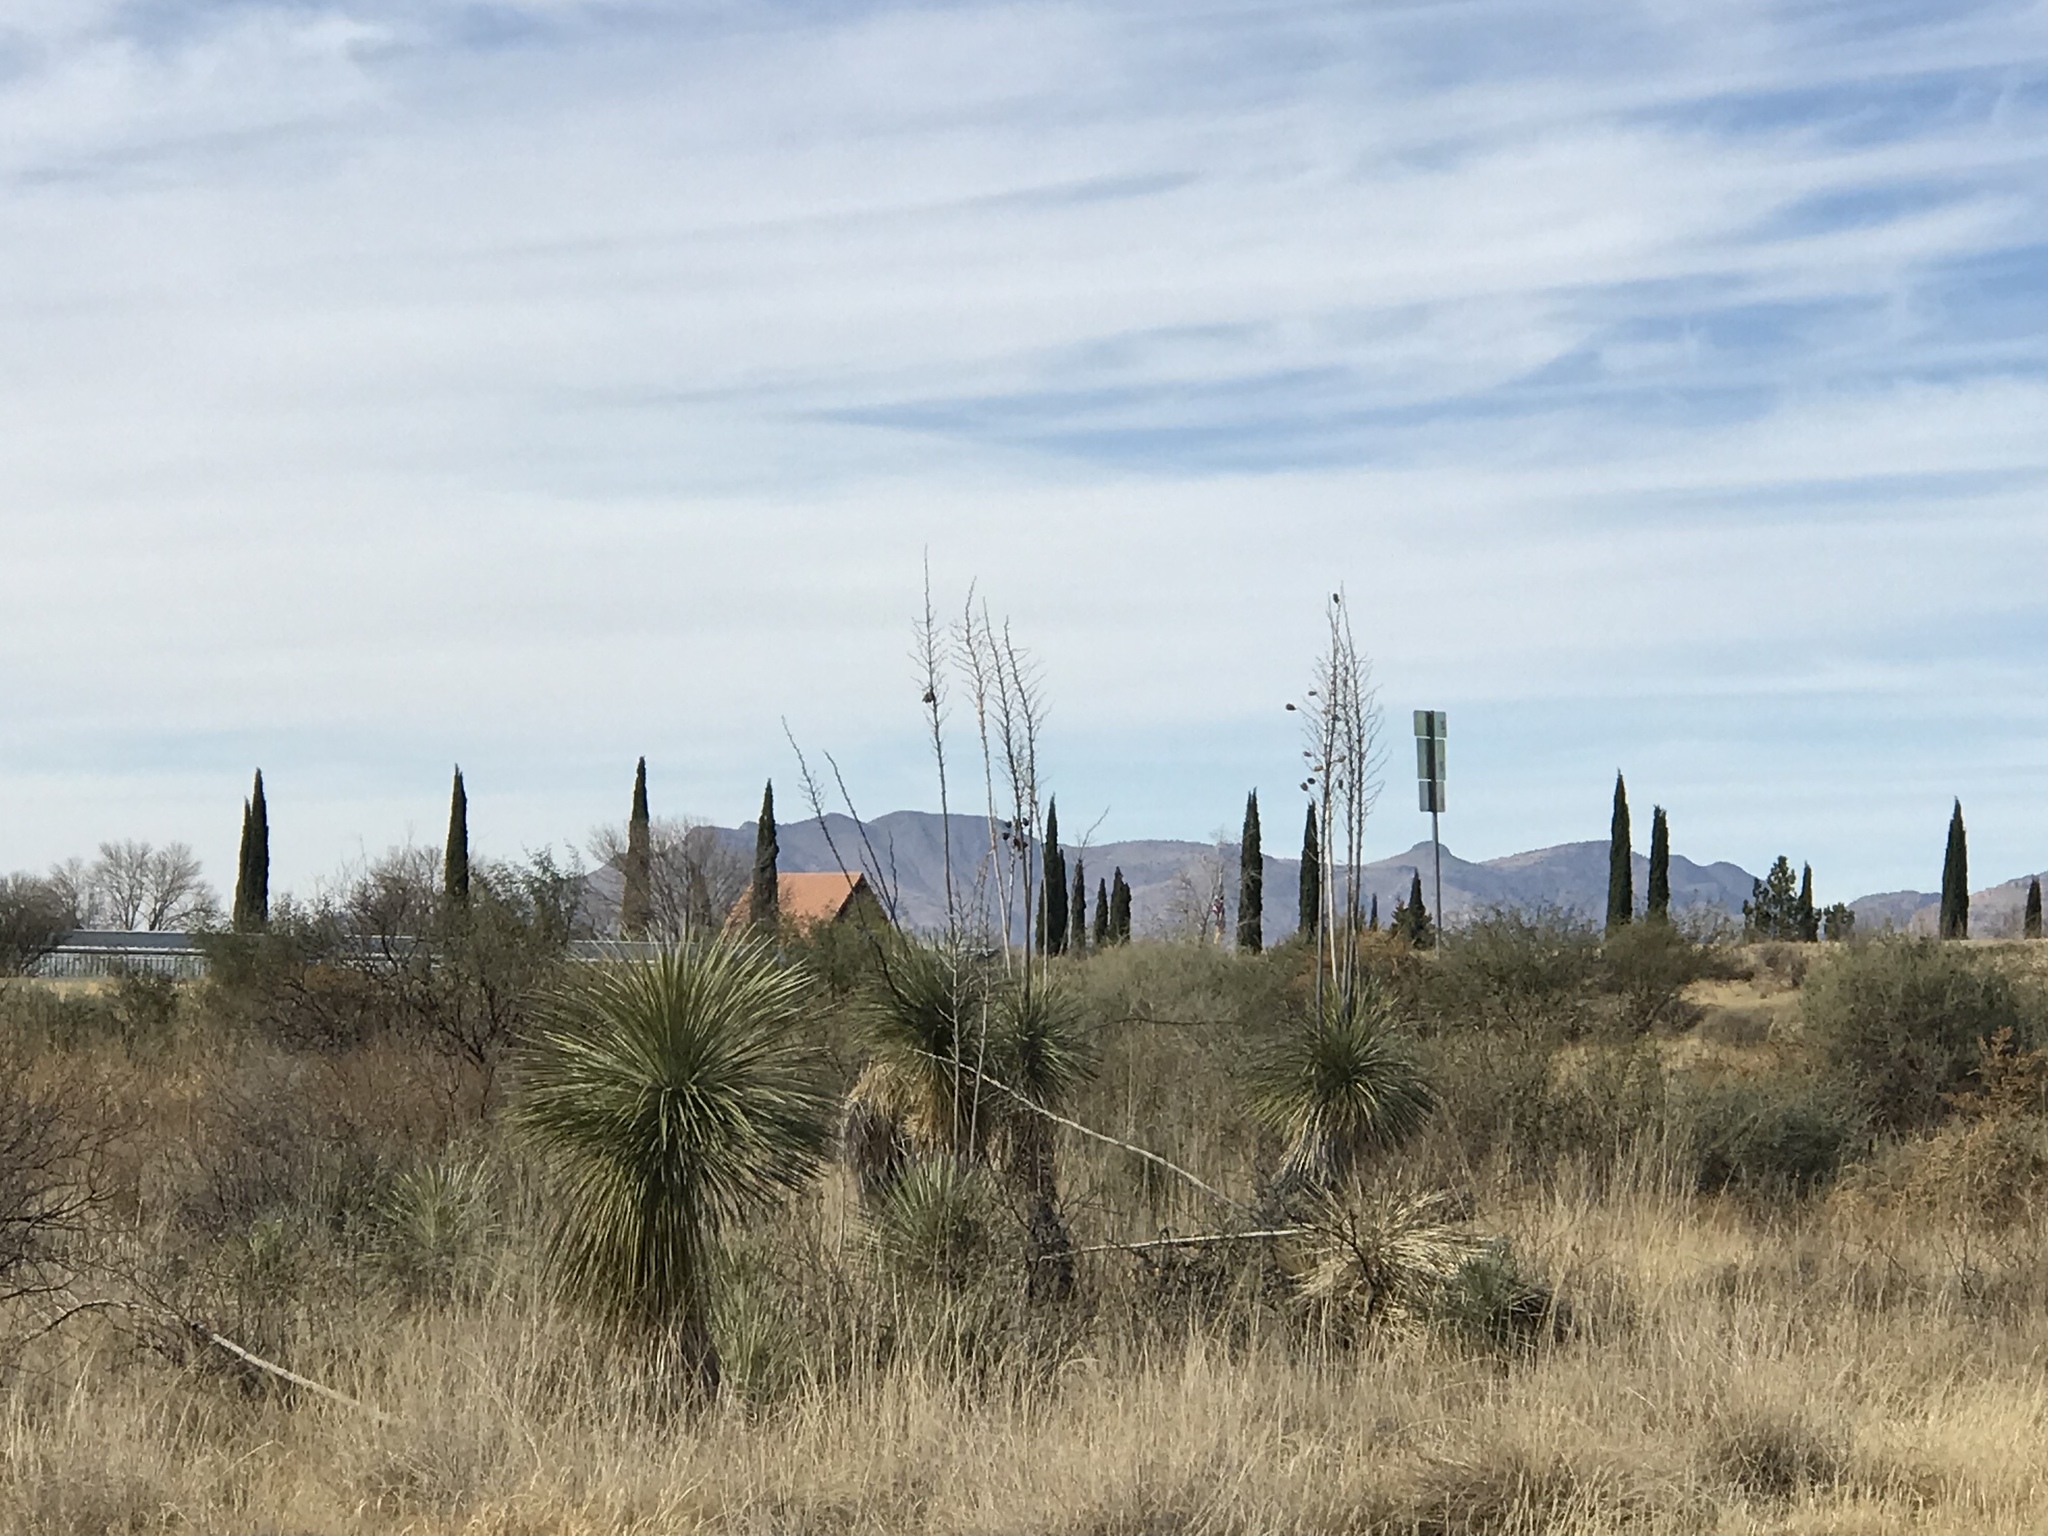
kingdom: Plantae
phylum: Tracheophyta
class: Liliopsida
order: Asparagales
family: Asparagaceae
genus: Yucca
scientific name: Yucca elata
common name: Palmella
